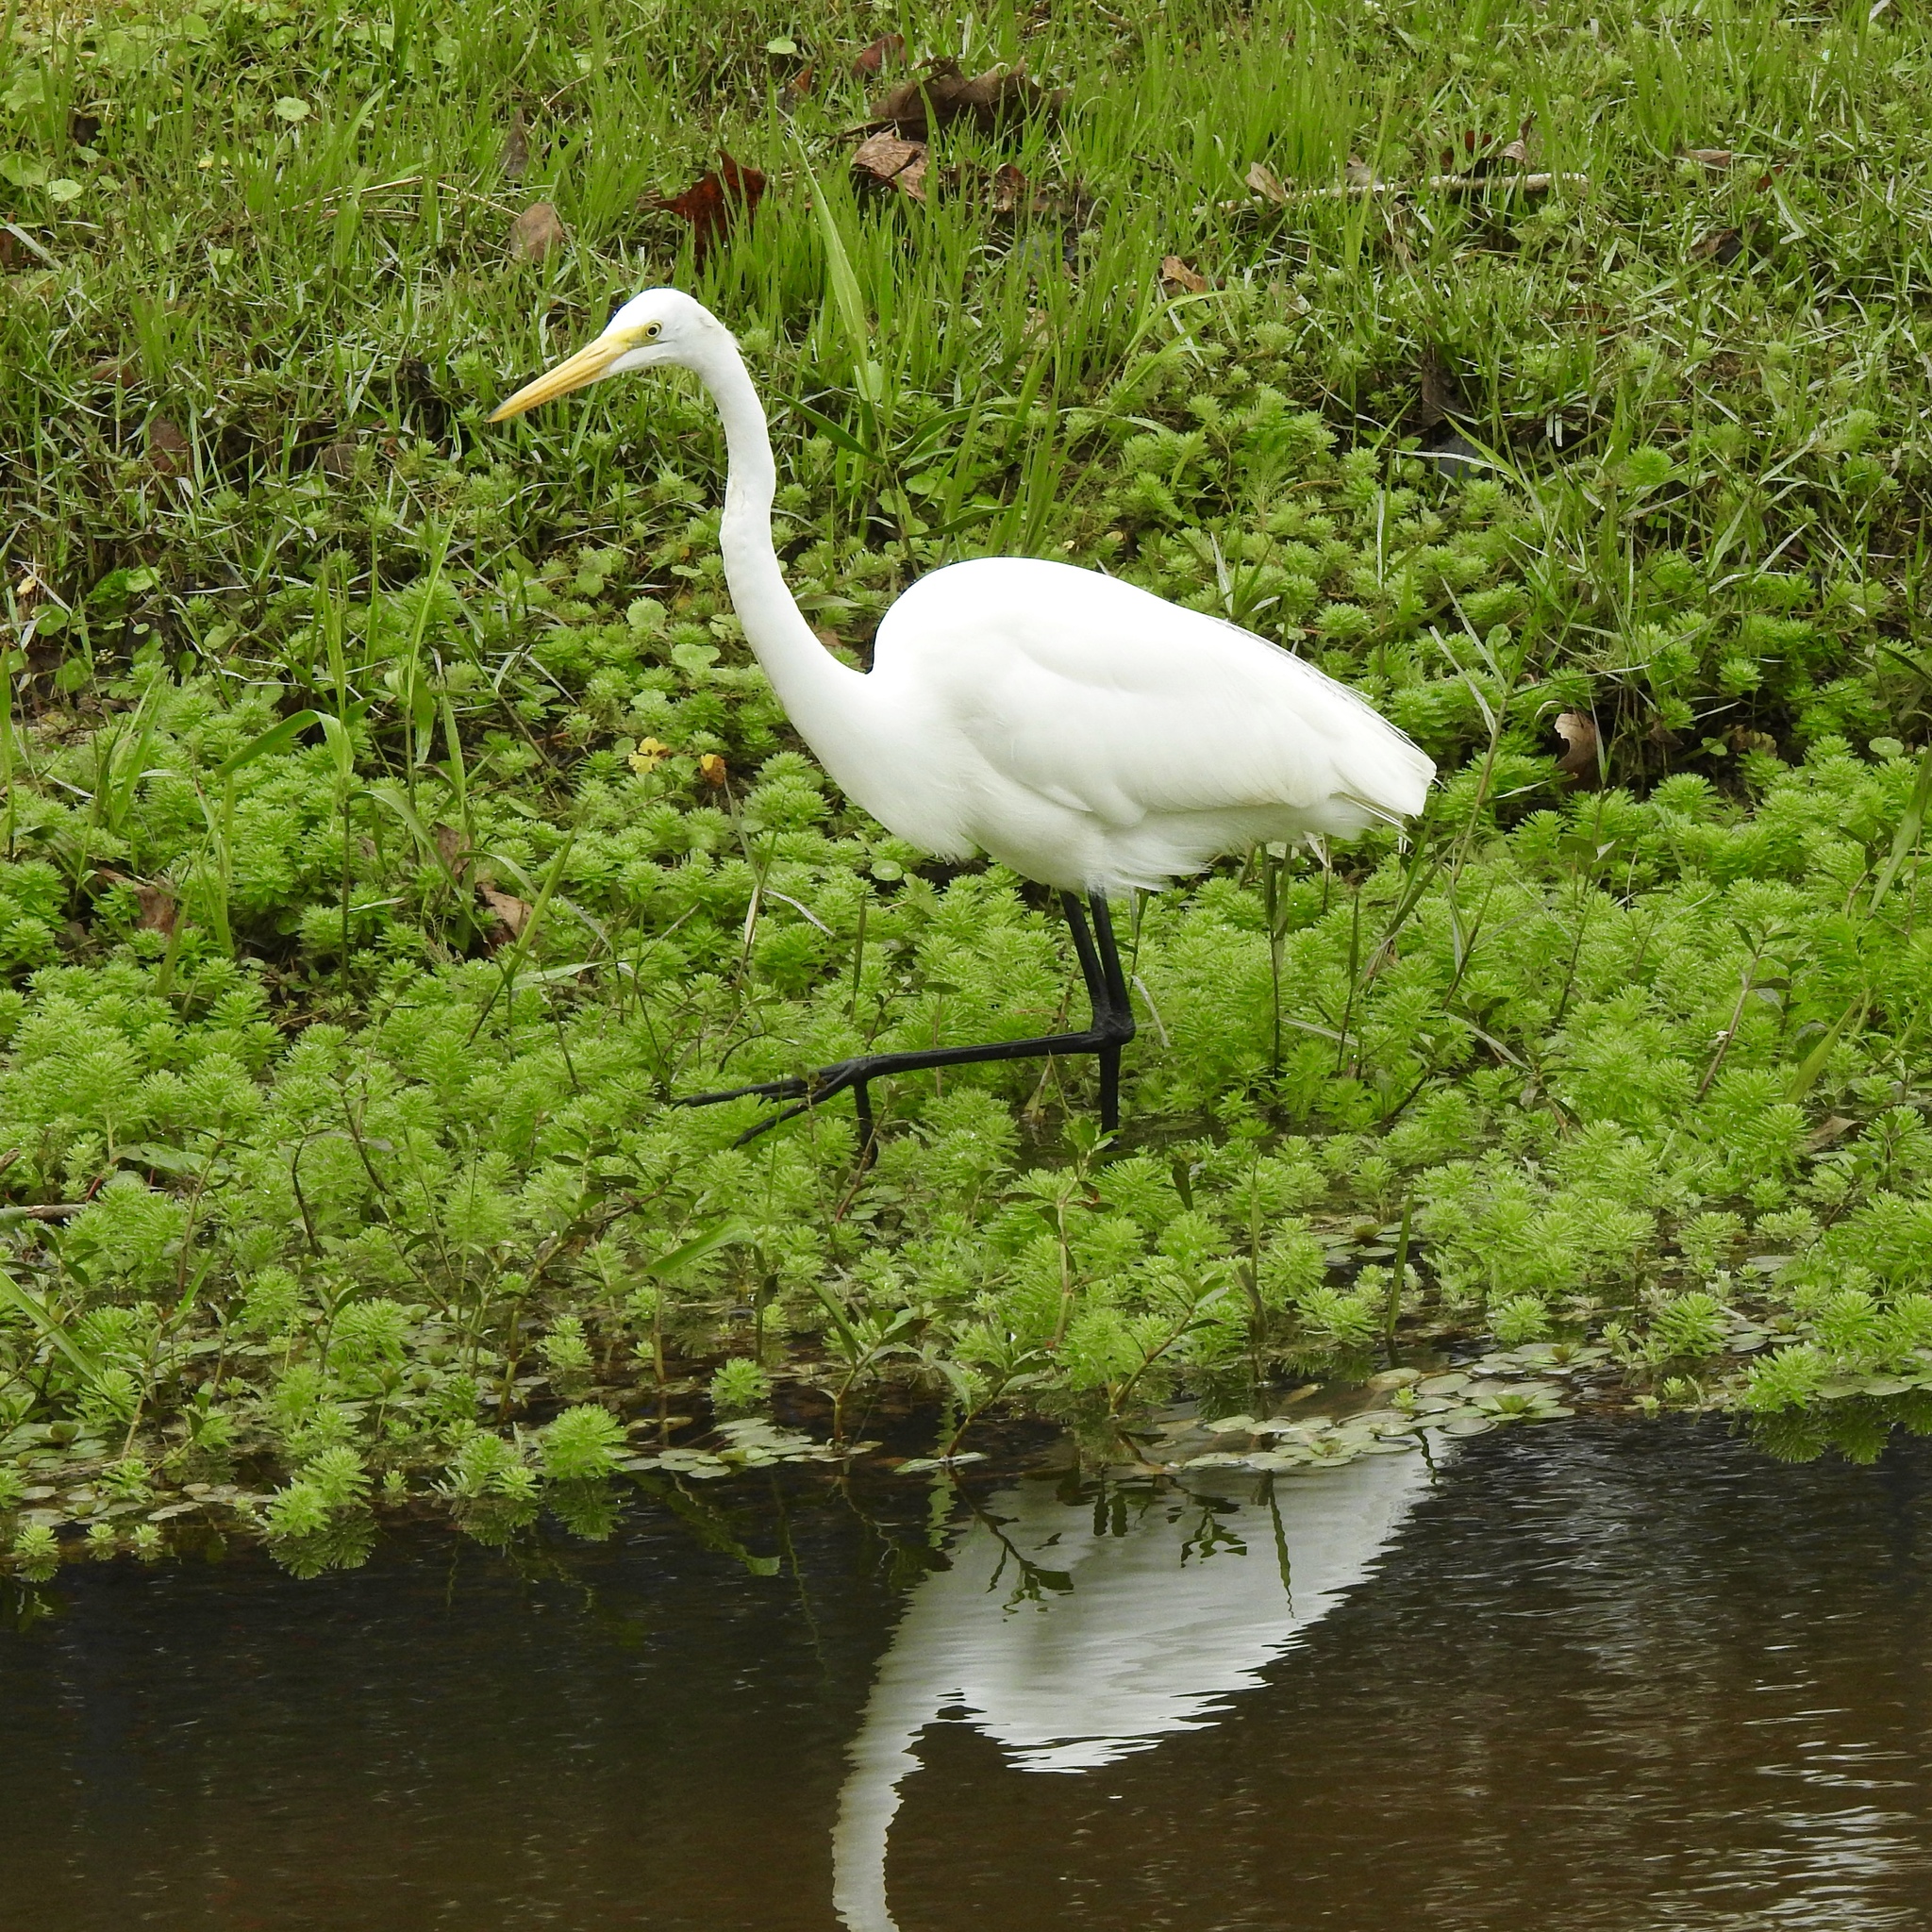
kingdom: Animalia
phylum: Chordata
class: Aves
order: Pelecaniformes
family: Ardeidae
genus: Ardea
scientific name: Ardea alba
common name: Great egret
